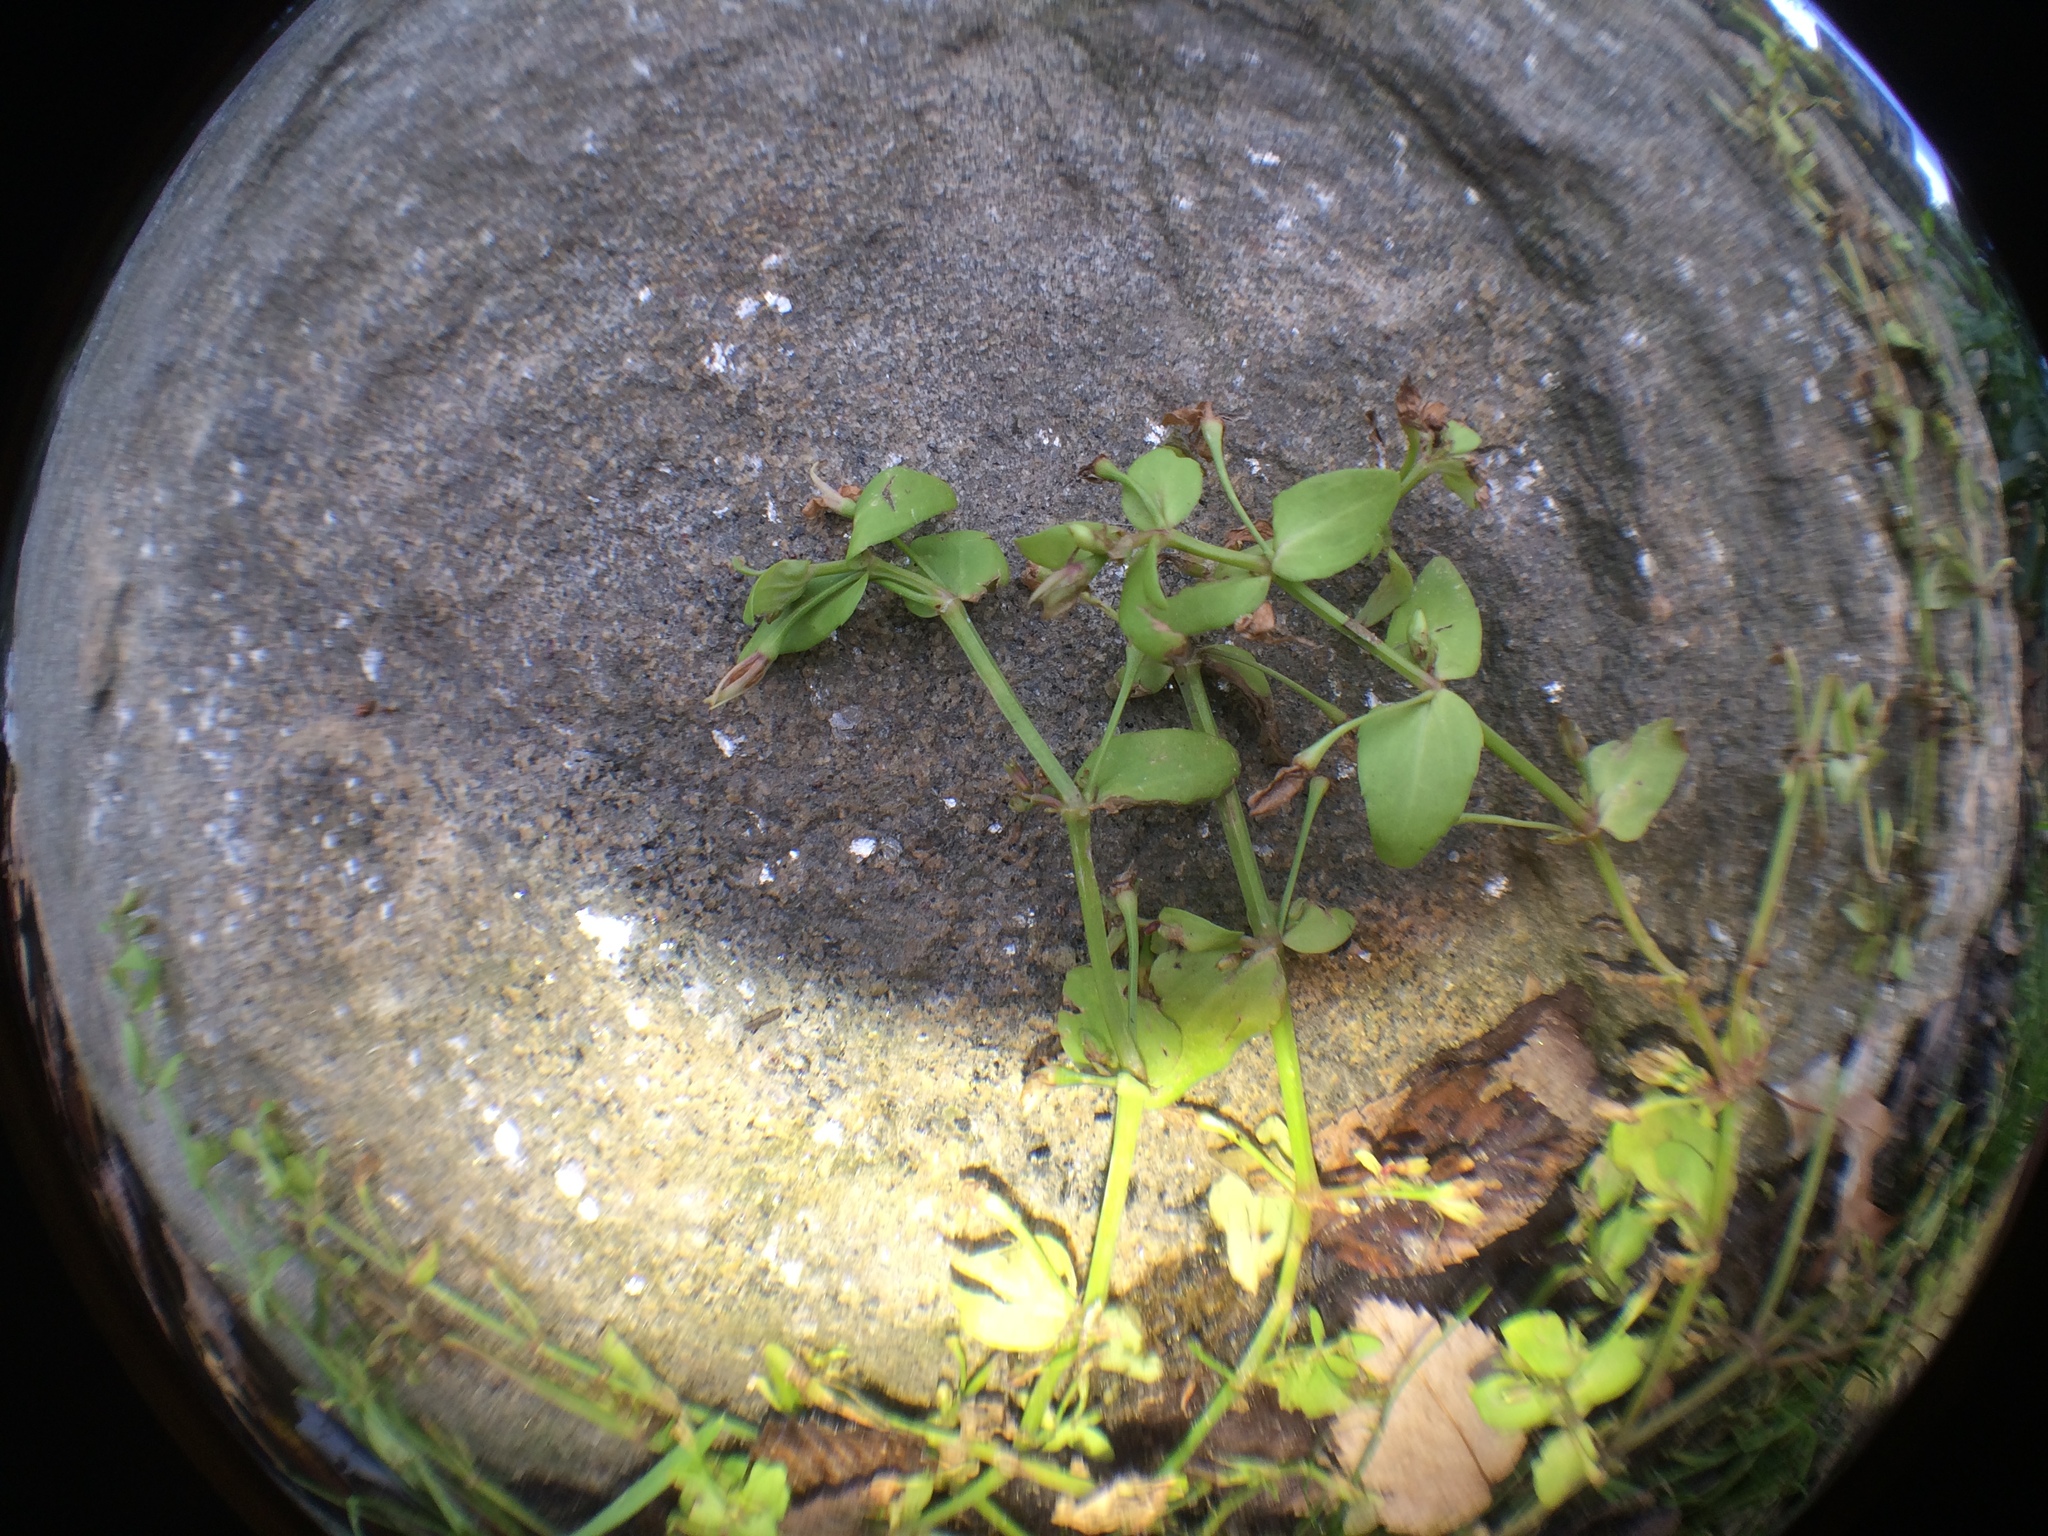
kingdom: Plantae
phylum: Tracheophyta
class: Magnoliopsida
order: Lamiales
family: Linderniaceae
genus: Lindernia
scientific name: Lindernia dubia
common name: Annual false pimpernel
